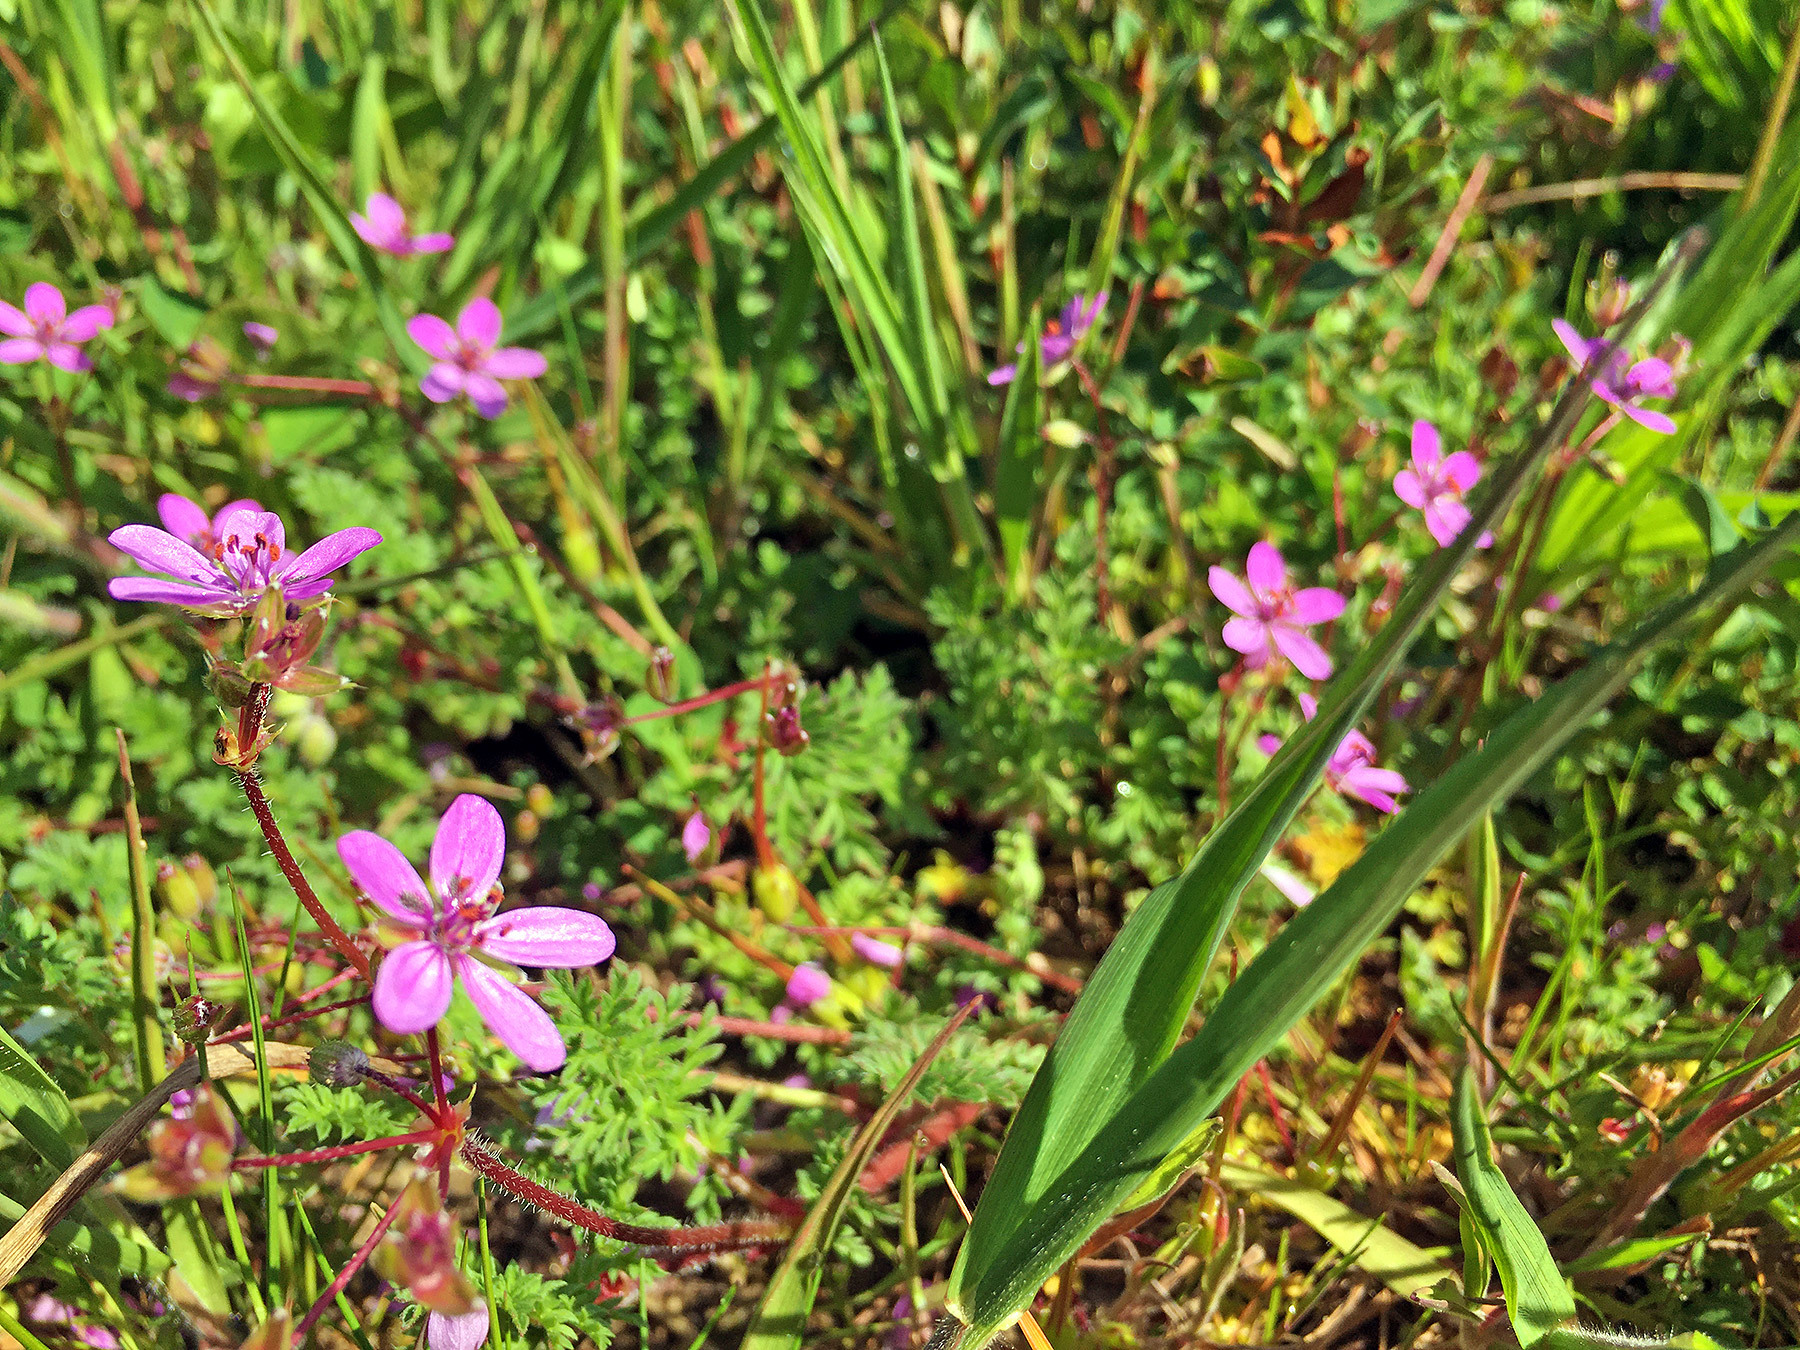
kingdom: Plantae
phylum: Tracheophyta
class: Magnoliopsida
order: Geraniales
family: Geraniaceae
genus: Erodium
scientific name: Erodium cicutarium
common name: Common stork's-bill
